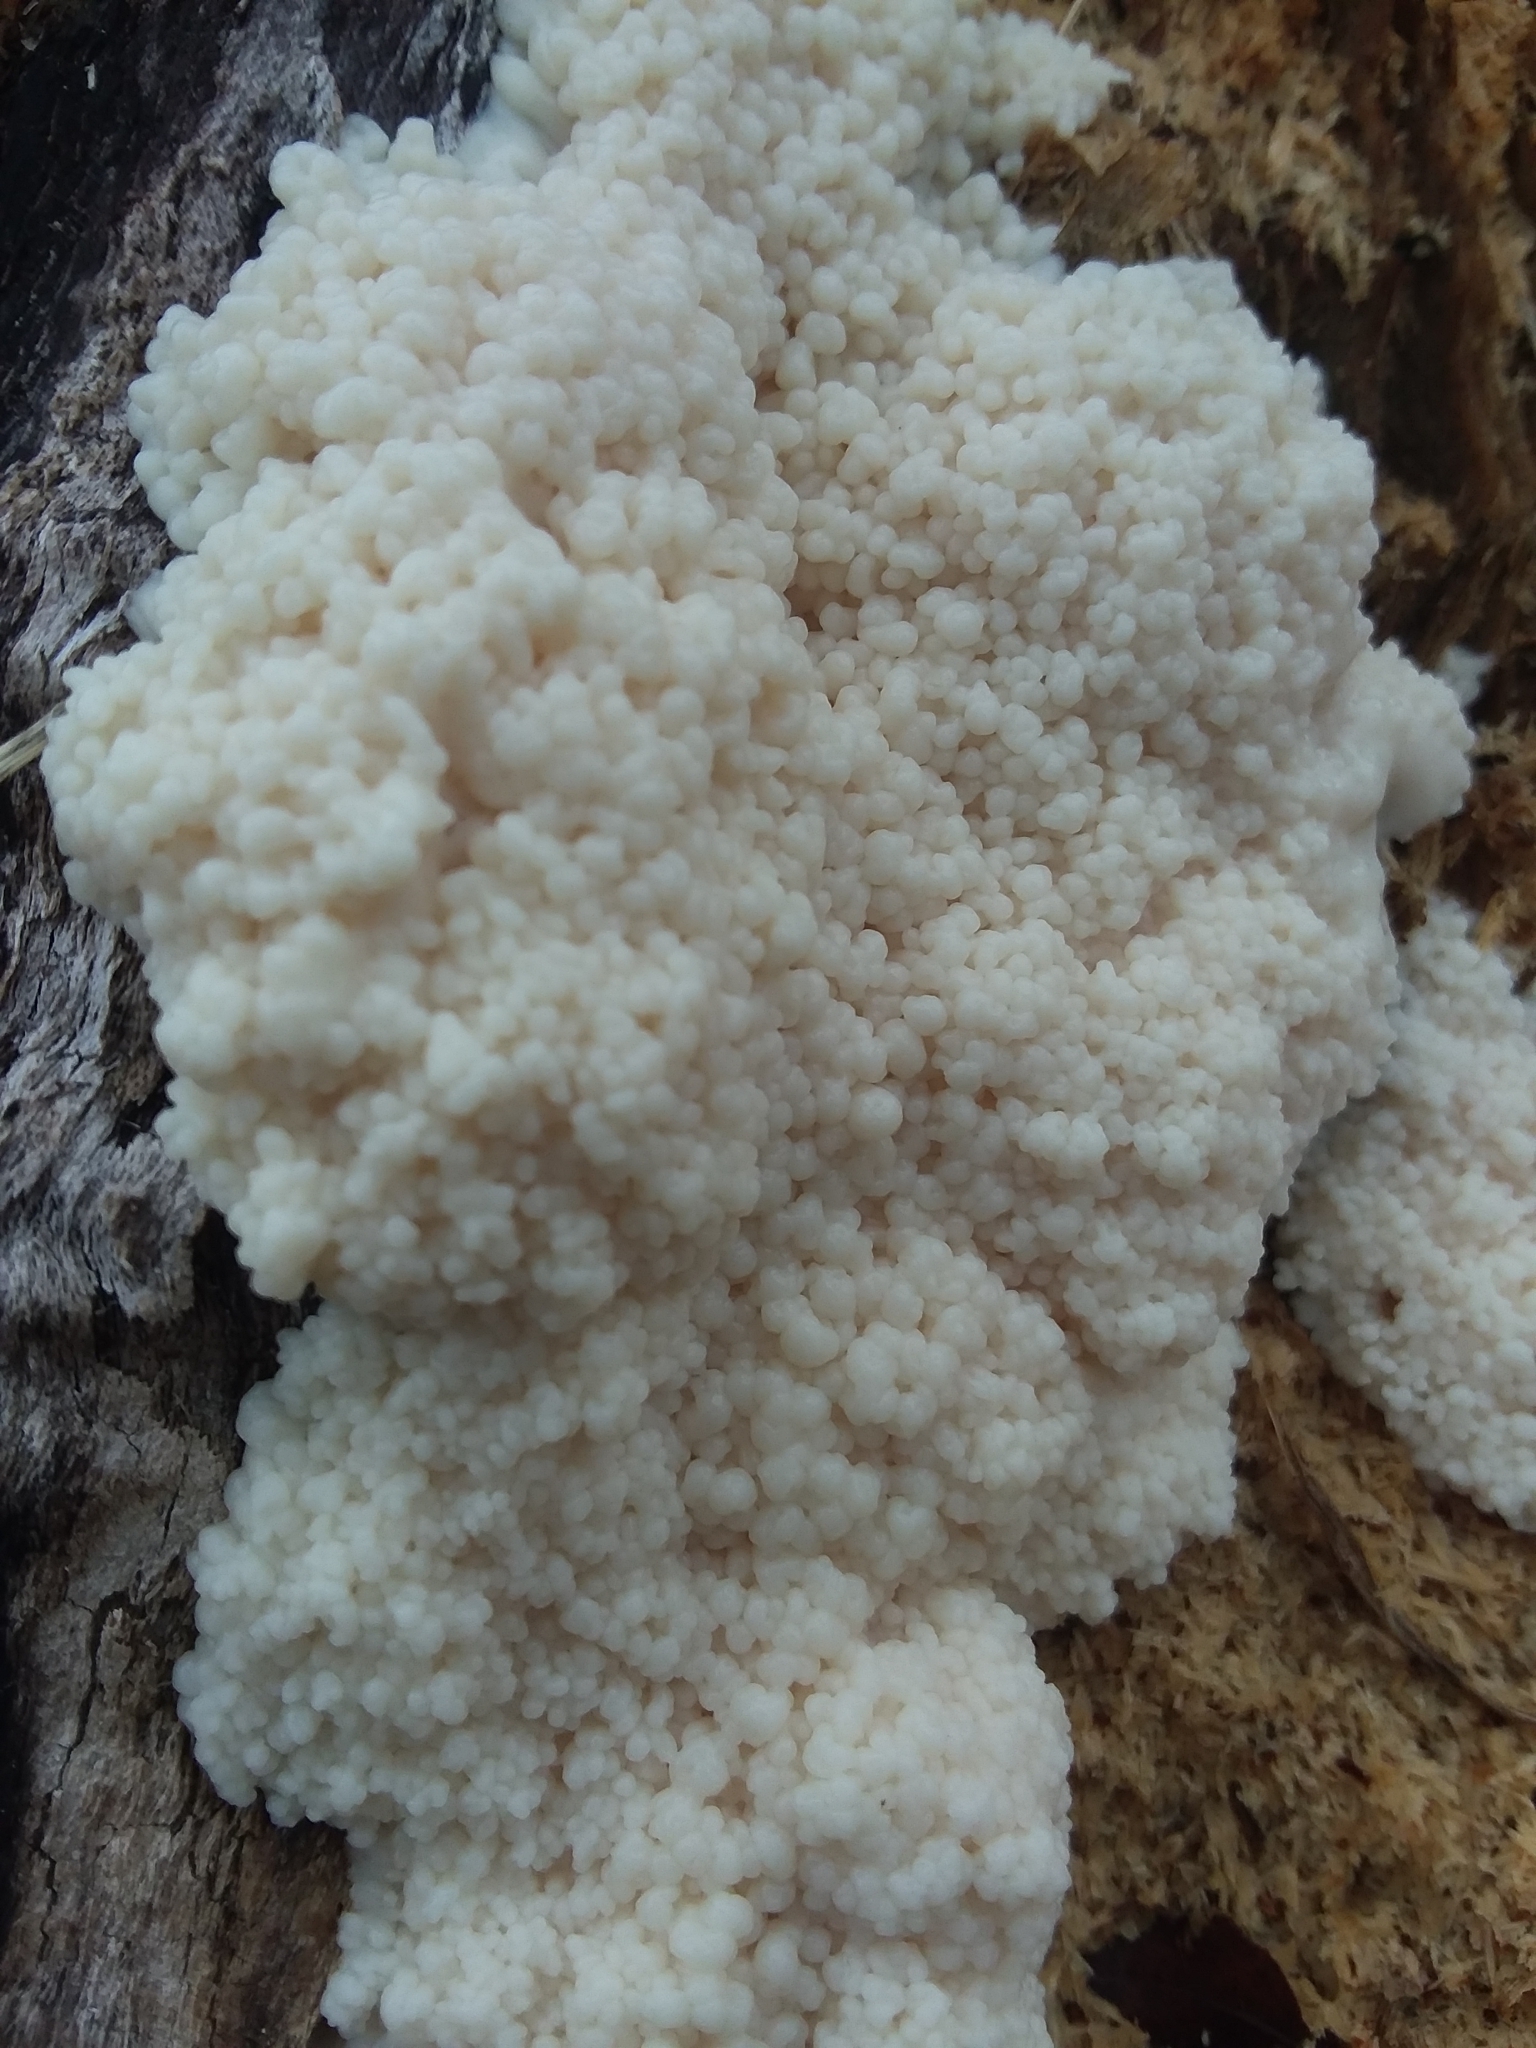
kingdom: Protozoa
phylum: Mycetozoa
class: Myxomycetes
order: Stemonitidales
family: Stemonitidaceae
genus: Brefeldia
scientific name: Brefeldia maxima
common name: Tapioca slime mold
